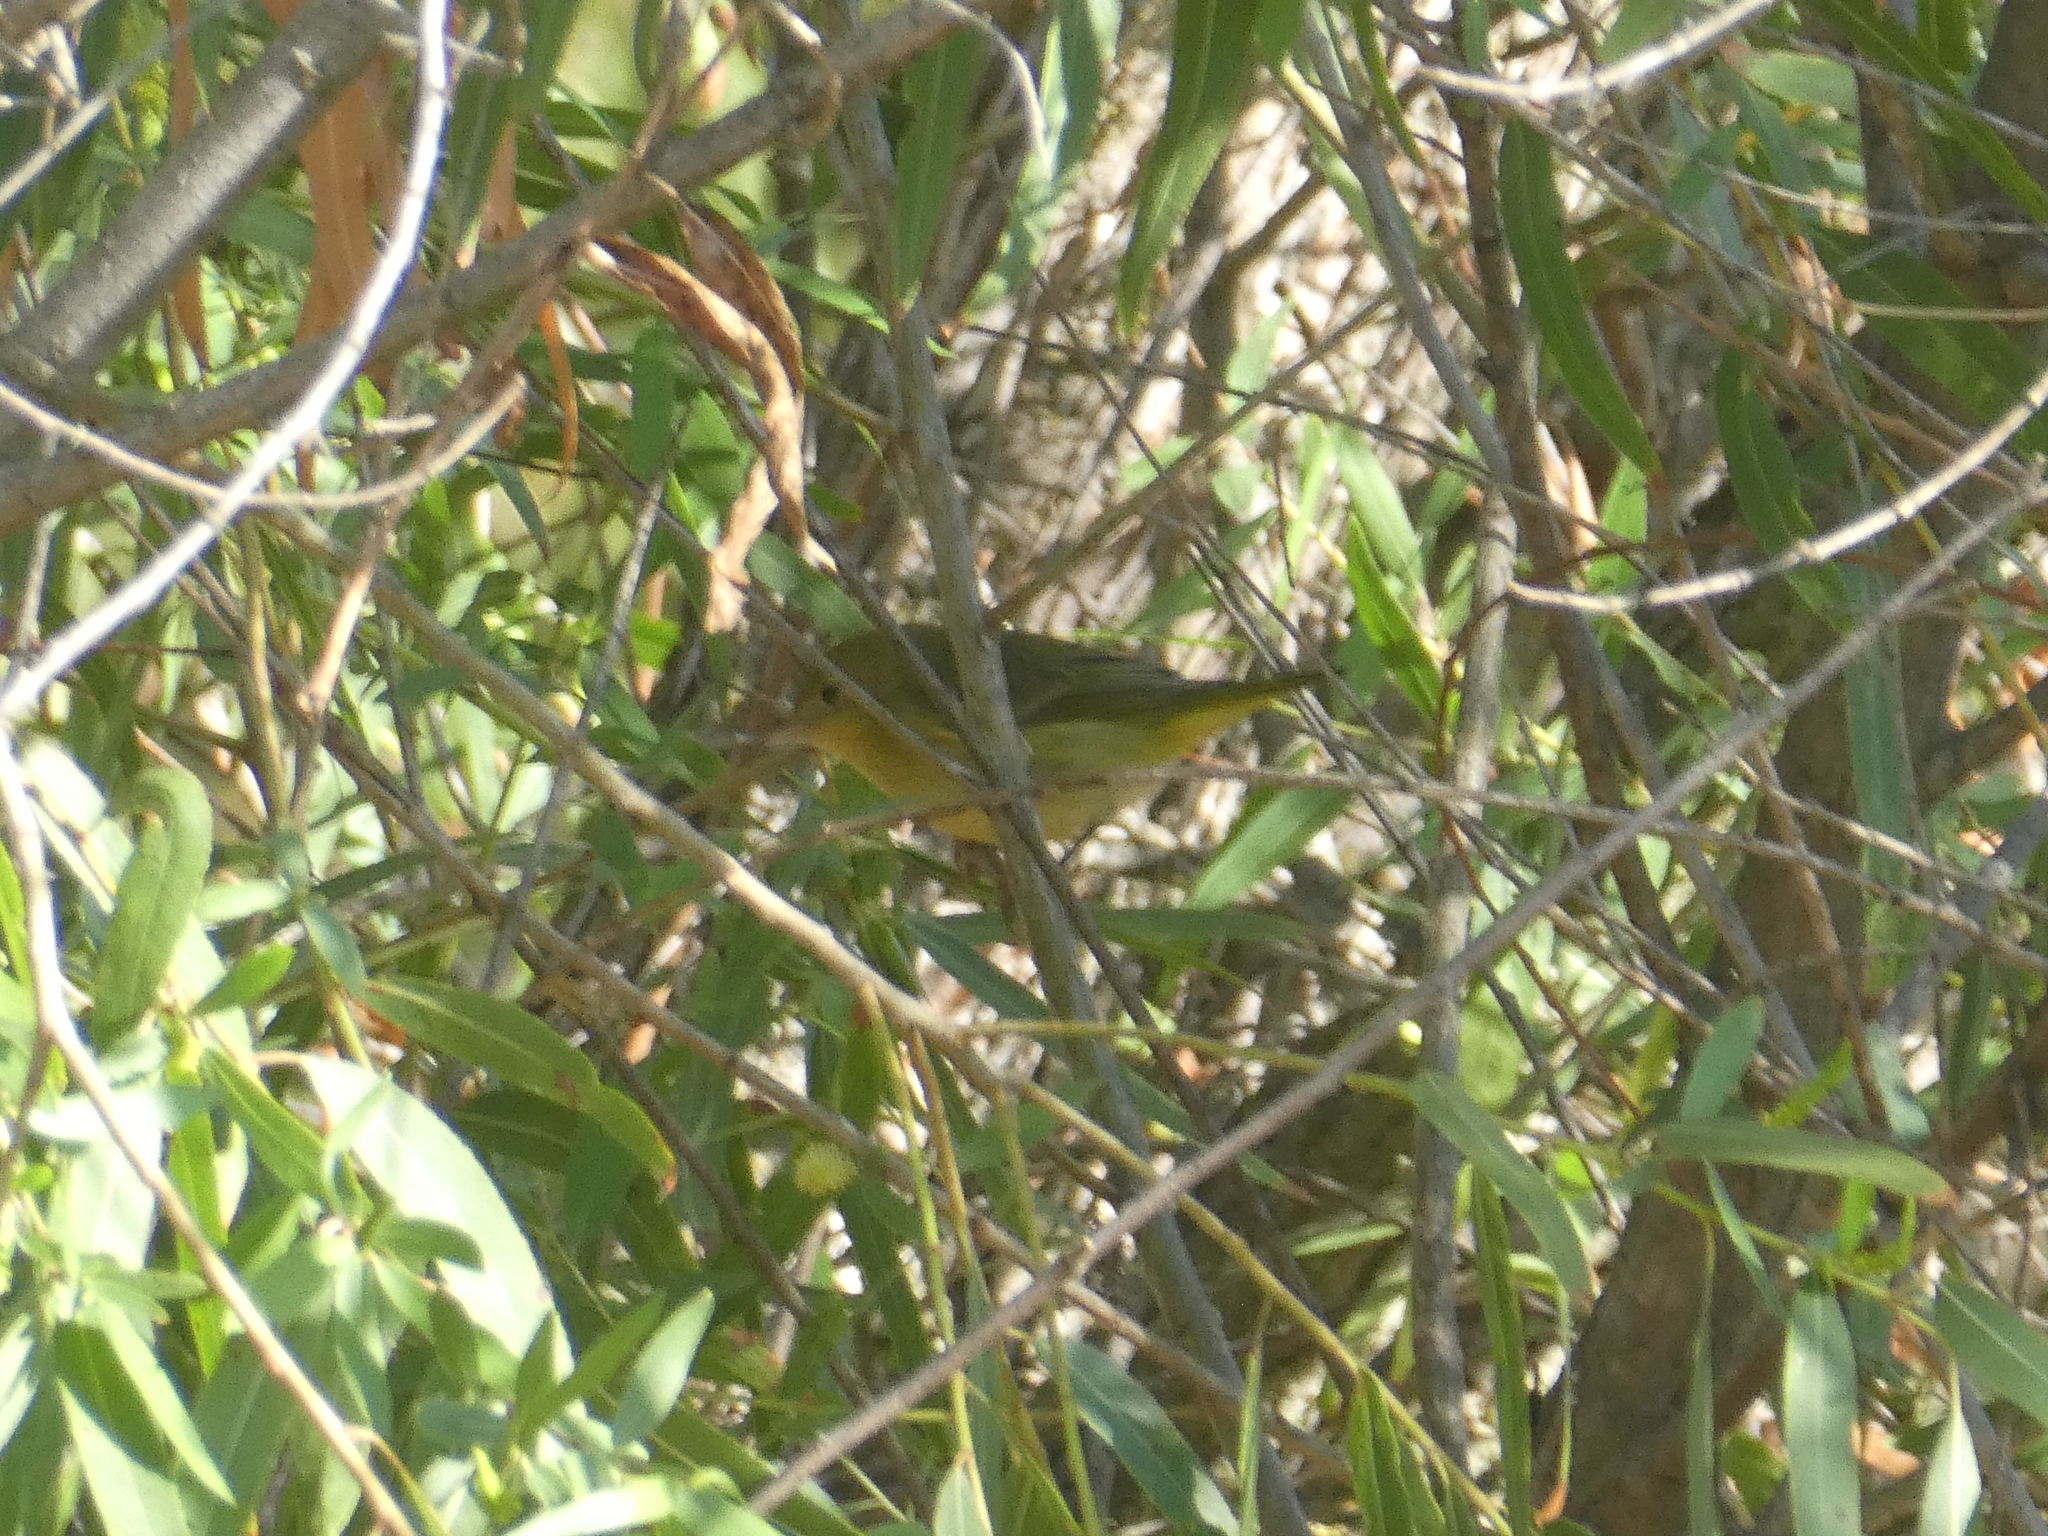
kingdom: Animalia
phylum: Chordata
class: Aves
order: Passeriformes
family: Parulidae
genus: Setophaga
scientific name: Setophaga petechia
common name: Yellow warbler
